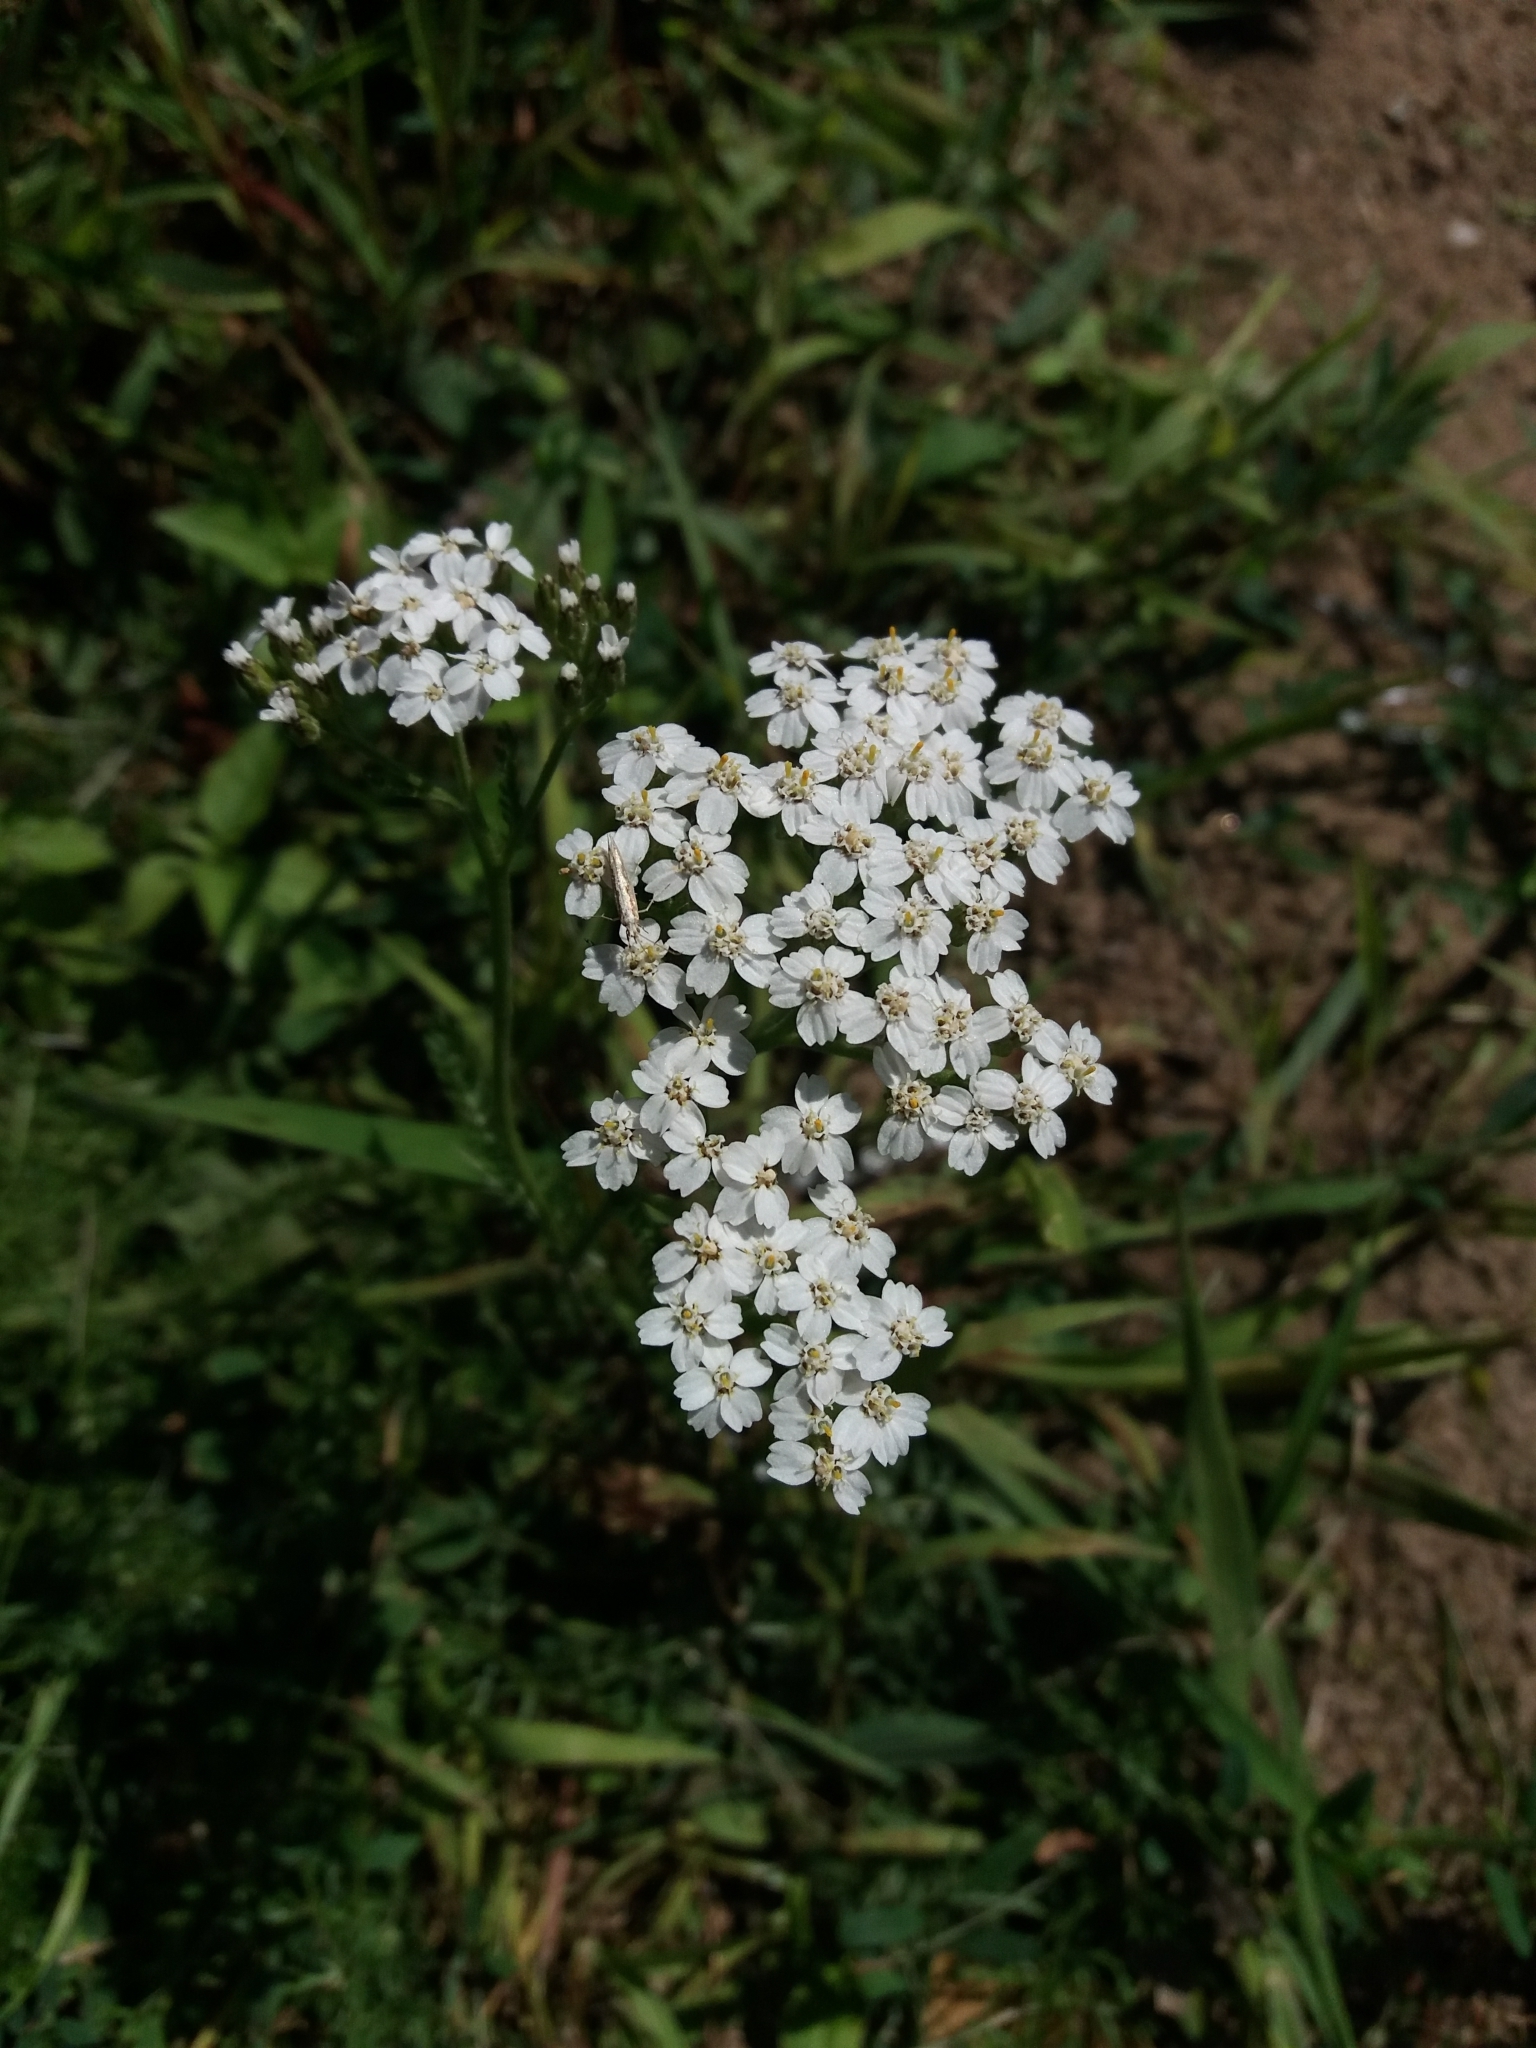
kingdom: Plantae
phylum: Tracheophyta
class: Magnoliopsida
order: Asterales
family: Asteraceae
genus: Achillea
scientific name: Achillea millefolium
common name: Yarrow
